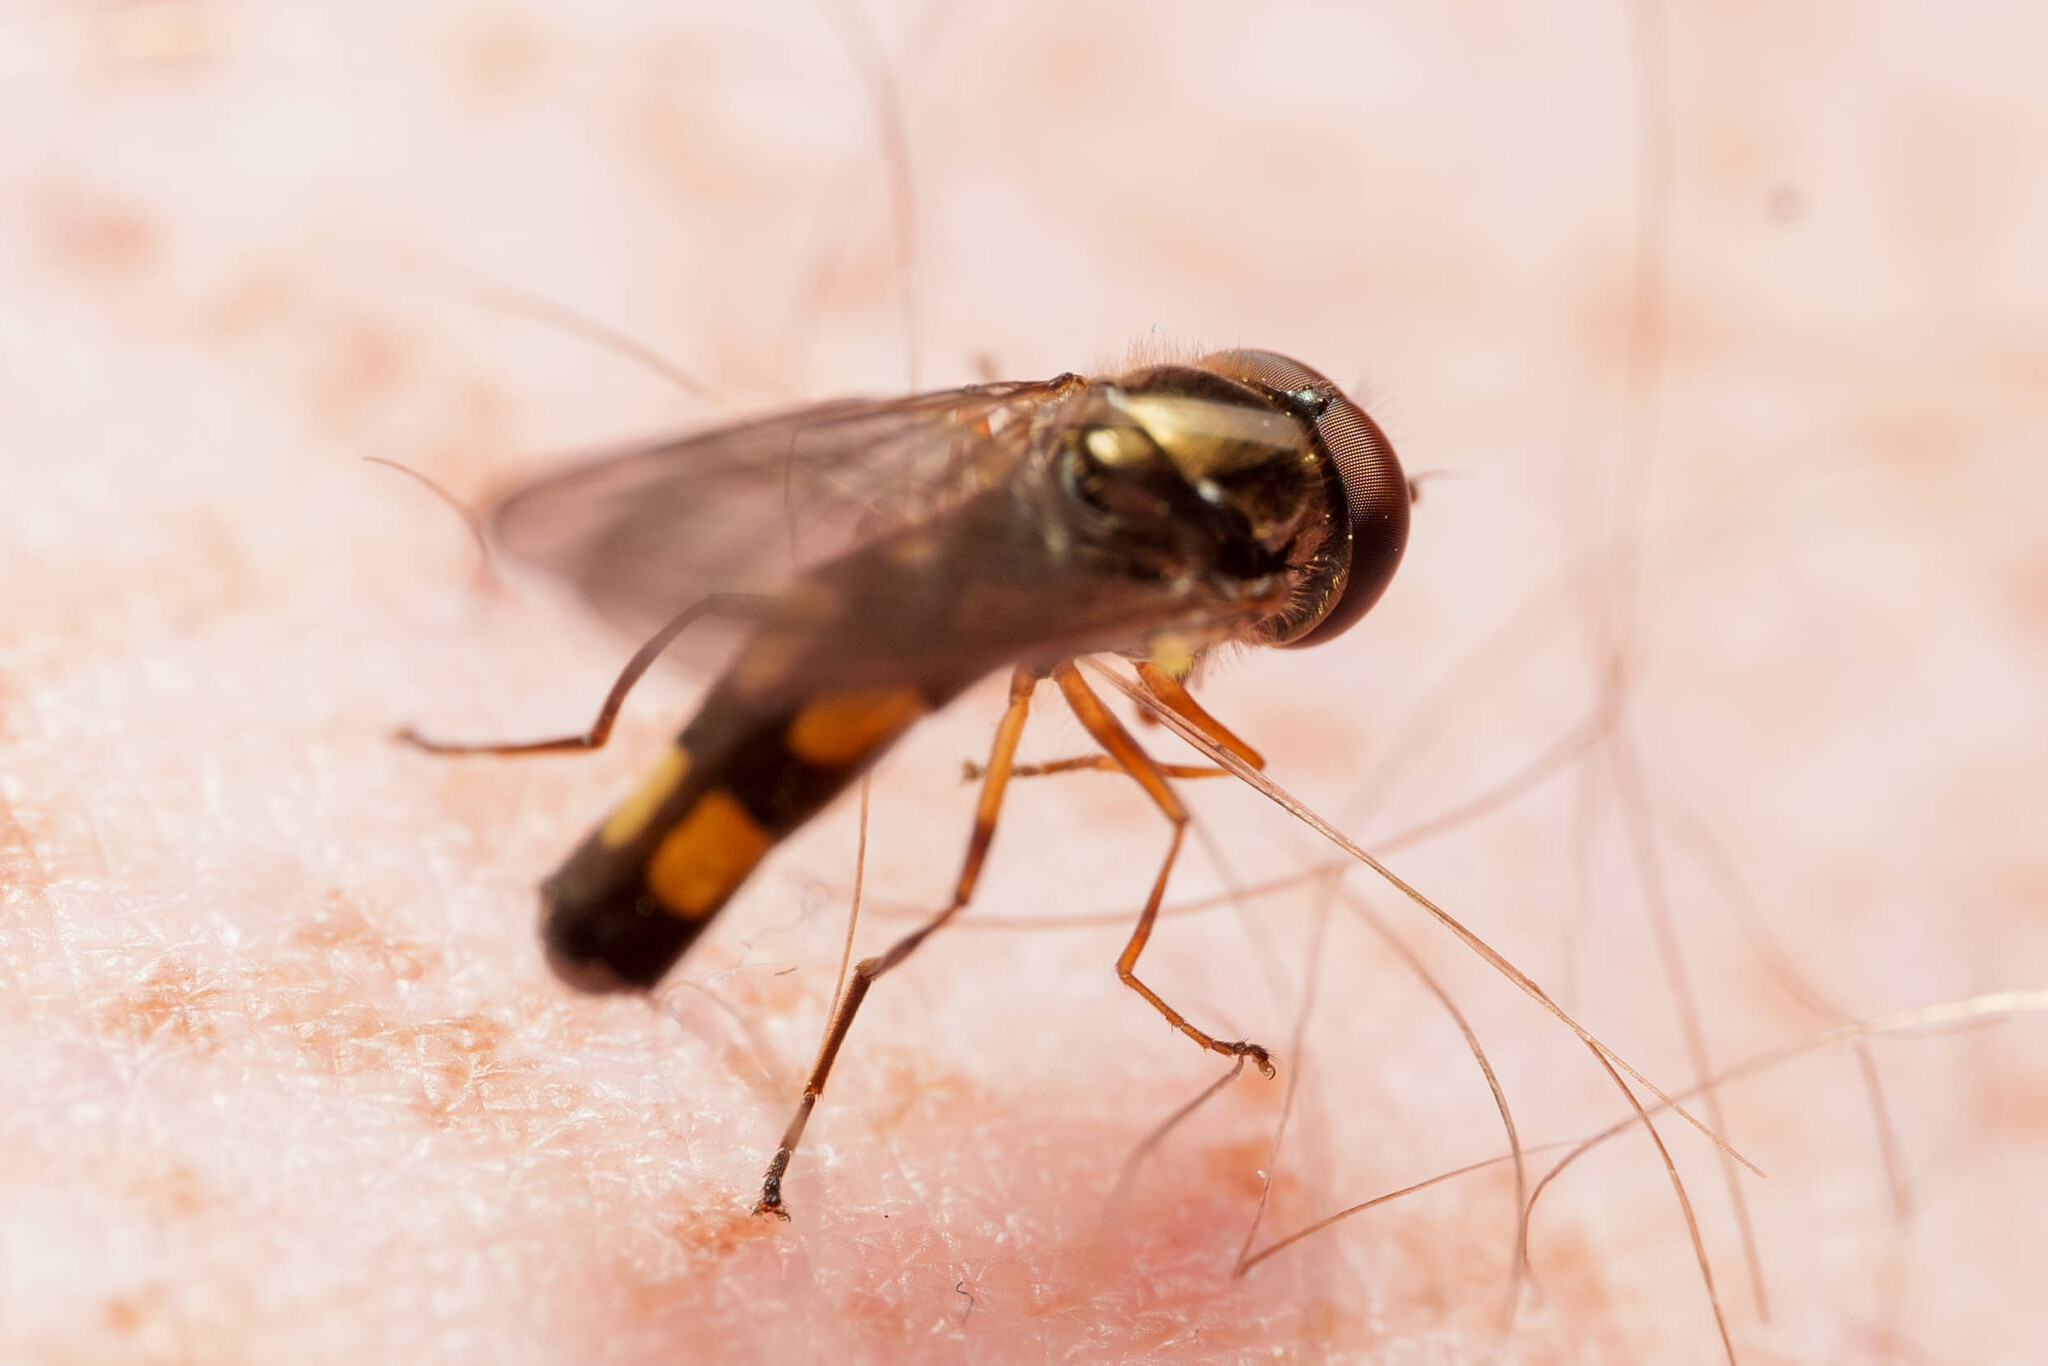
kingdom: Animalia
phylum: Arthropoda
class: Insecta
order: Diptera
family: Syrphidae
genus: Melanostoma
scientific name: Melanostoma mellina
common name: Hover fly
